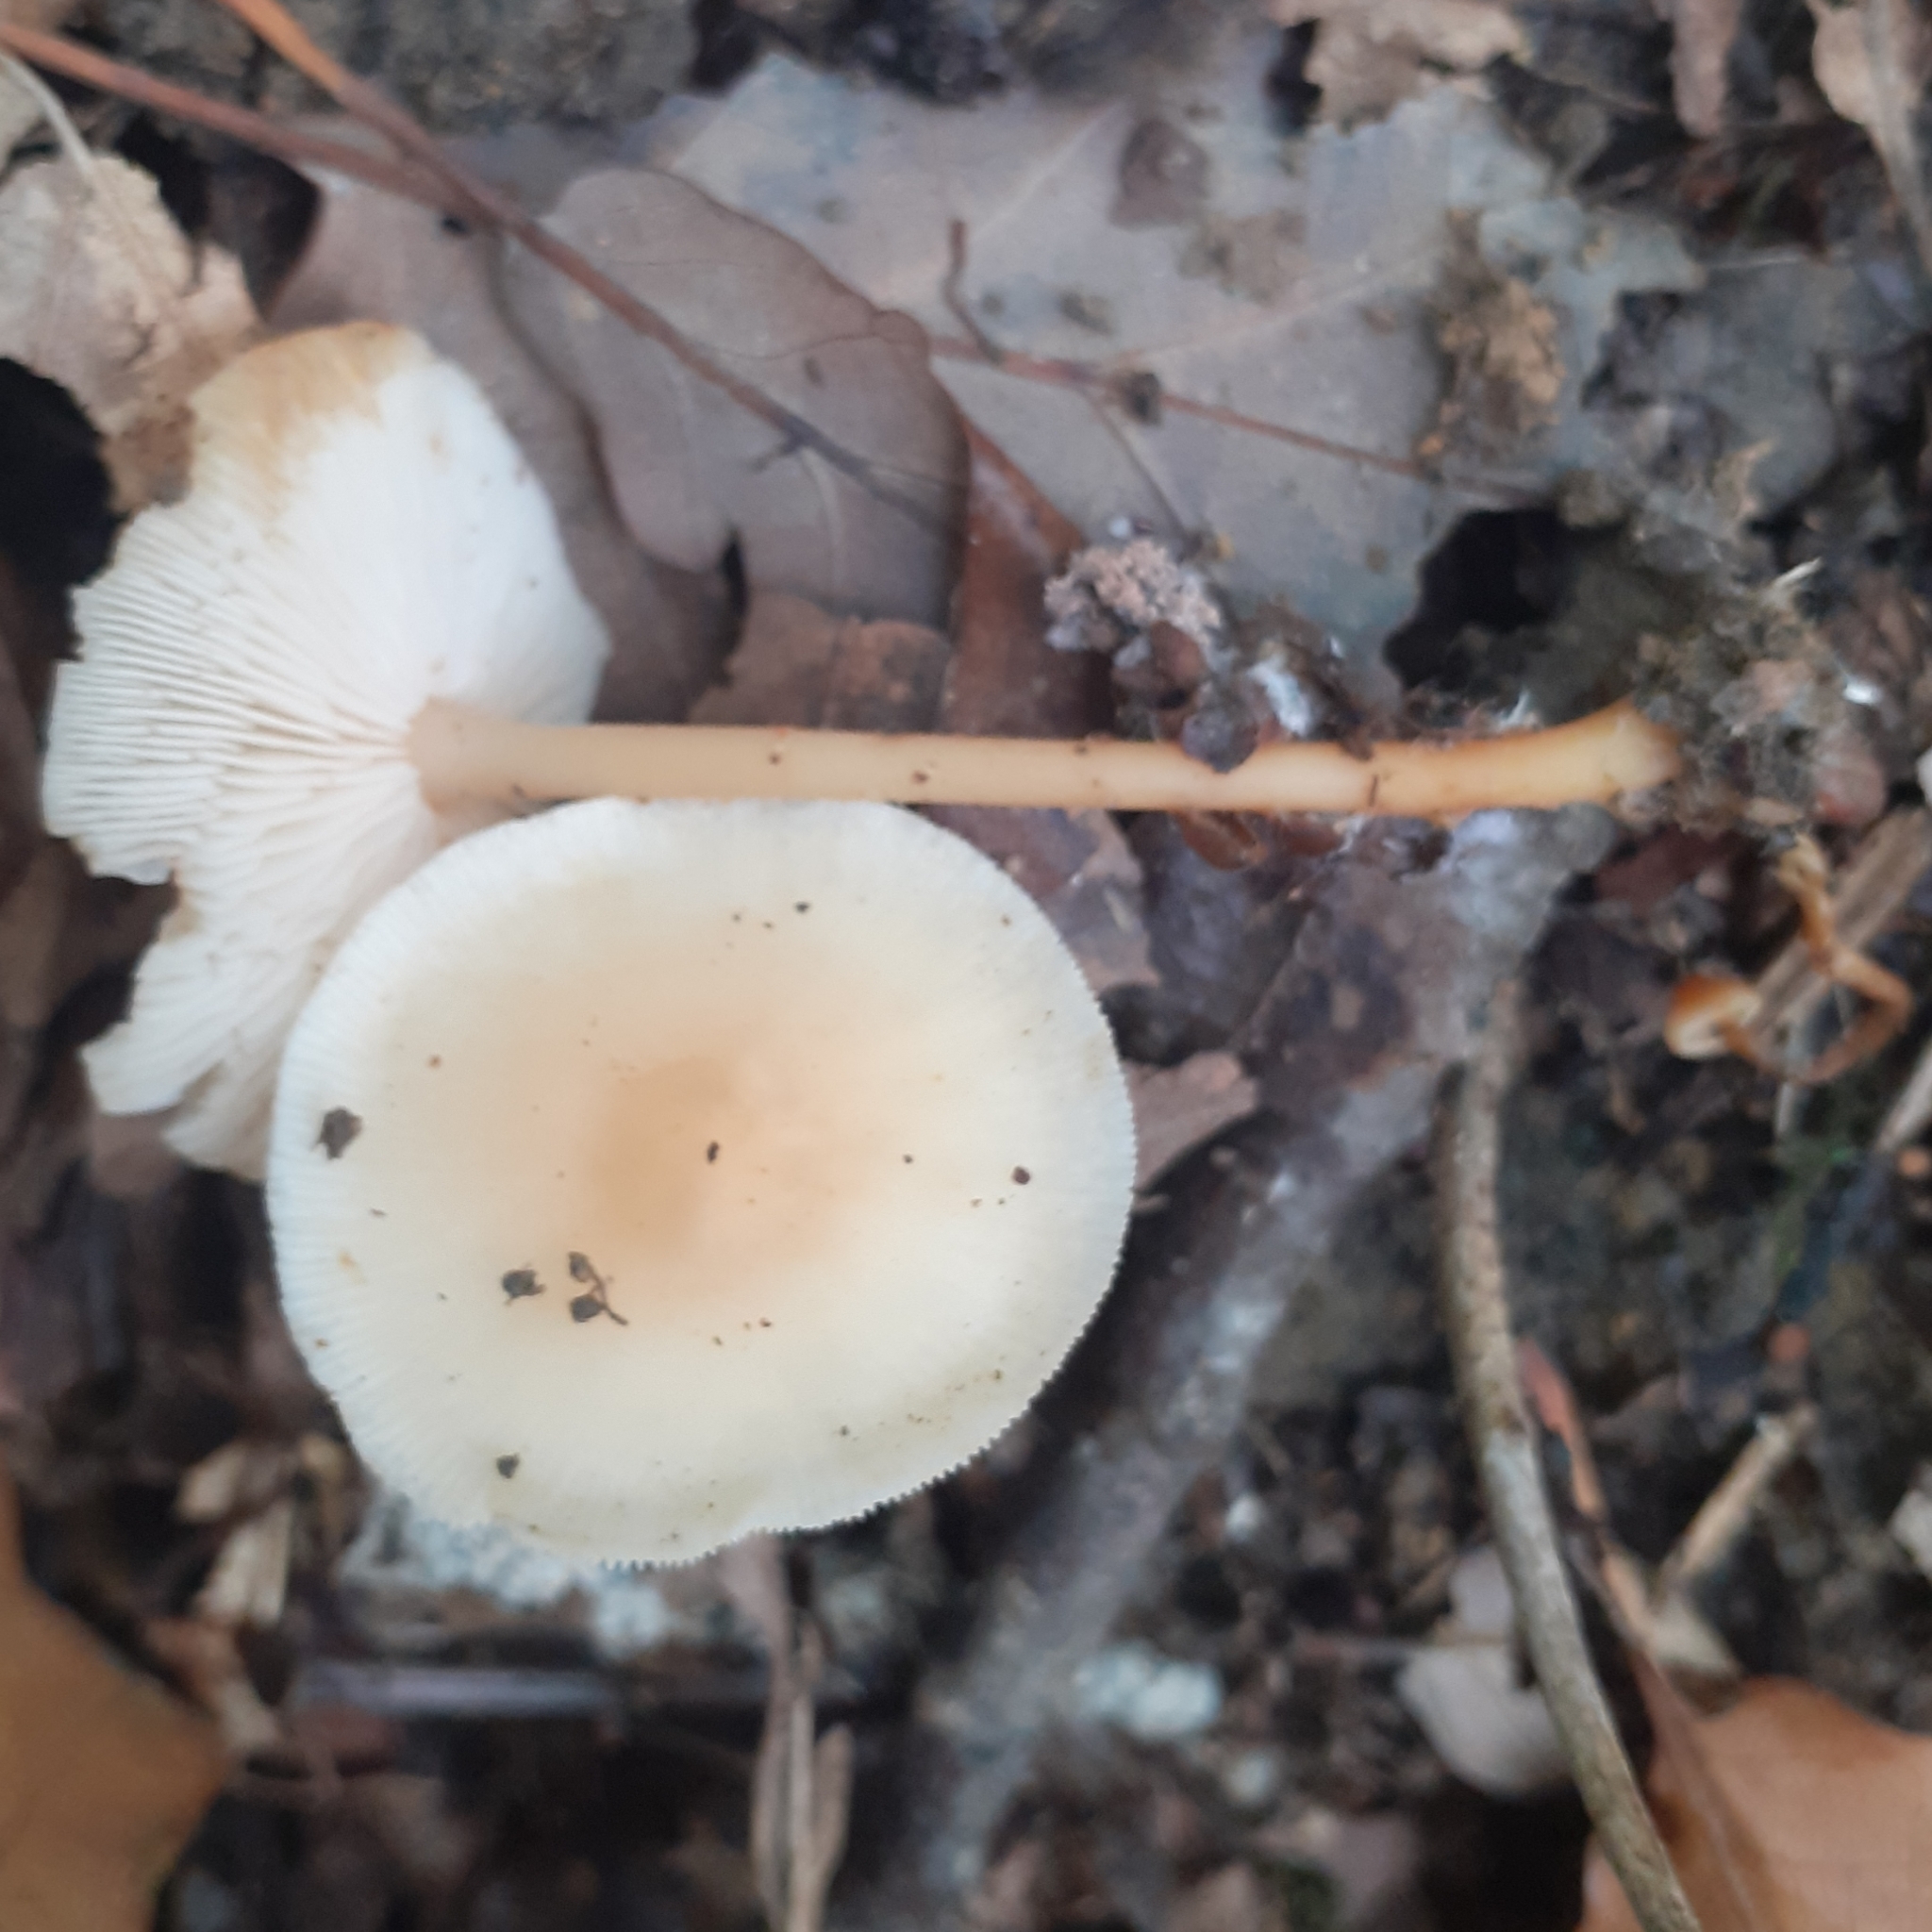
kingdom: Fungi
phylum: Basidiomycota
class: Agaricomycetes
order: Agaricales
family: Omphalotaceae
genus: Gymnopus
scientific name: Gymnopus dryophilus
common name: Penny top
